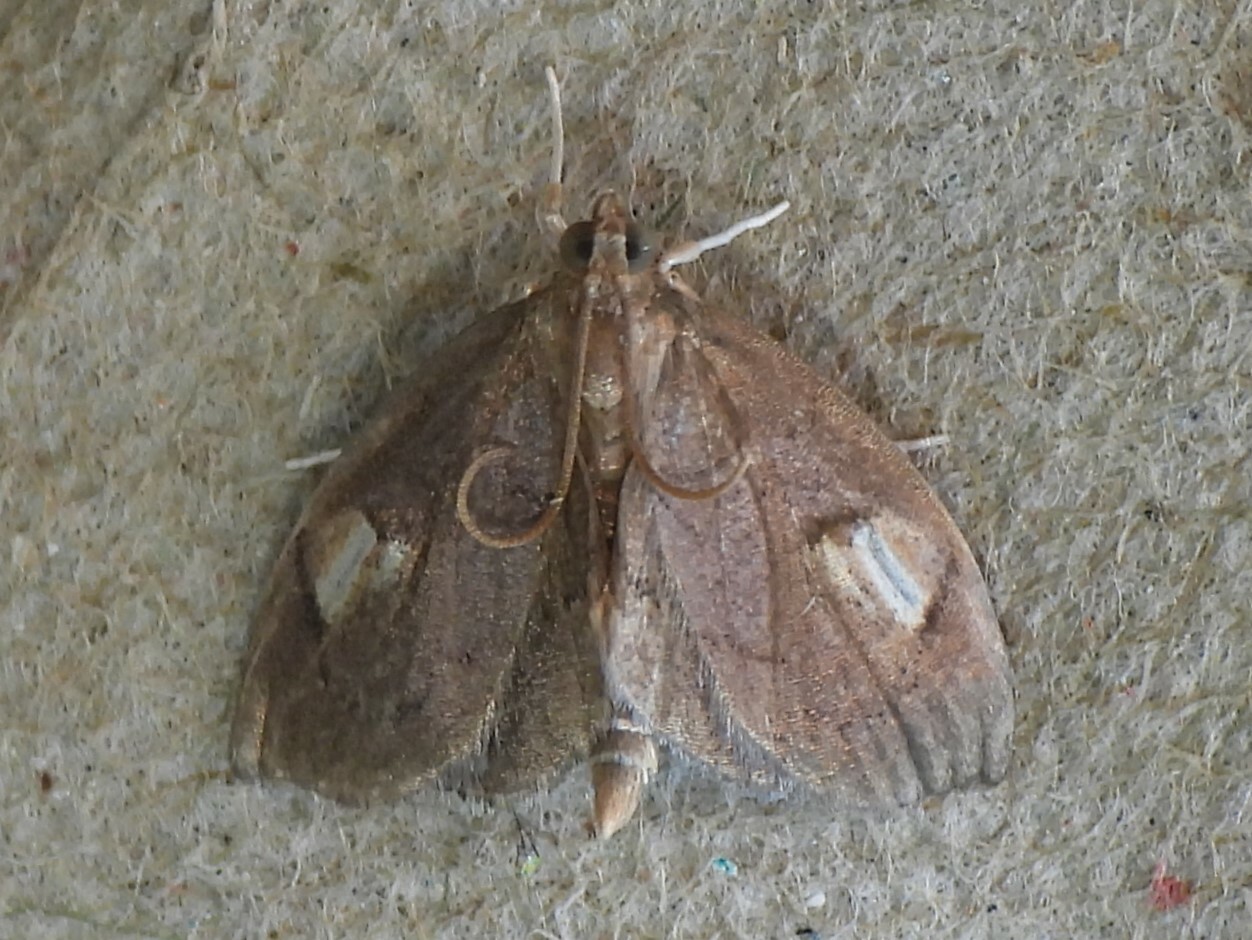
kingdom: Animalia
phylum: Arthropoda
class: Insecta
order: Lepidoptera
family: Crambidae
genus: Perispasta
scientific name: Perispasta caeculalis
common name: Titian peale's moth
